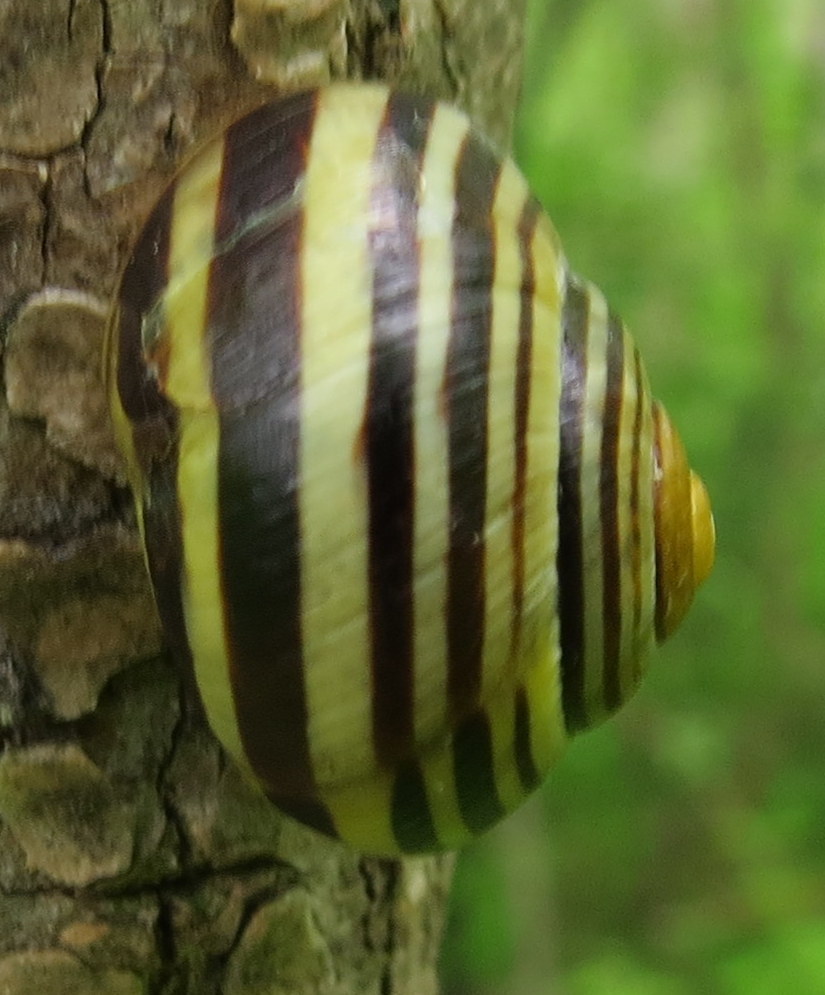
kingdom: Animalia
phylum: Mollusca
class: Gastropoda
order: Stylommatophora
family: Helicidae
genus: Cepaea
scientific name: Cepaea nemoralis
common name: Grovesnail
